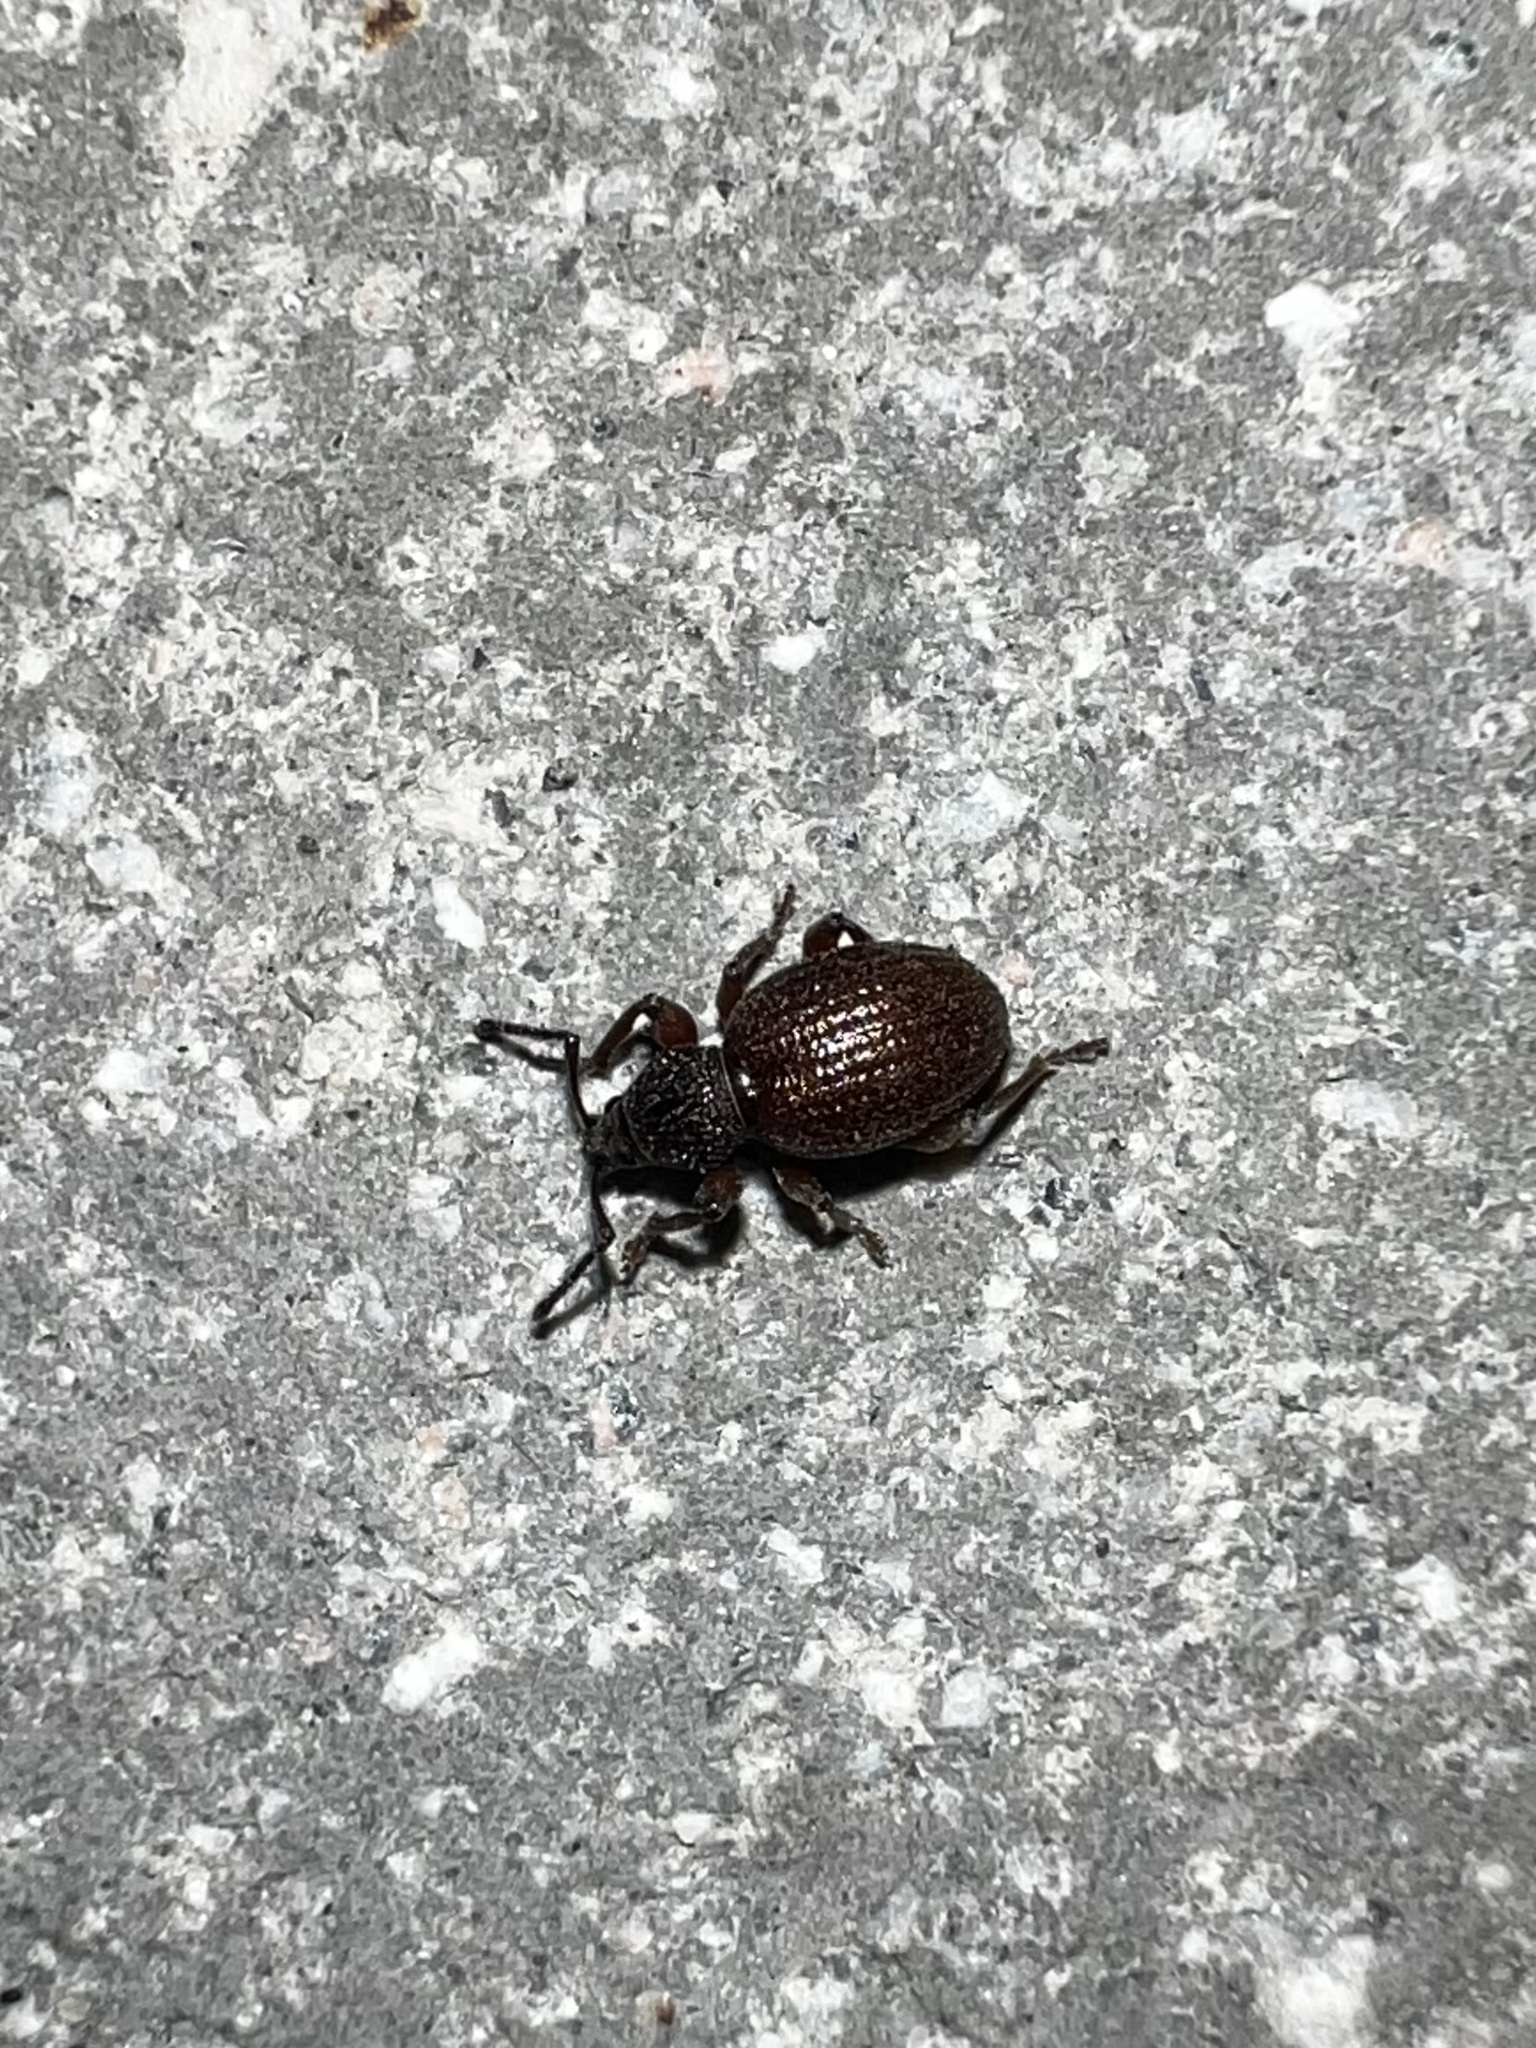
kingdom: Animalia
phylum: Arthropoda
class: Insecta
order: Coleoptera
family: Curculionidae
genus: Otiorhynchus
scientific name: Otiorhynchus ovatus
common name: Strawberry root weevil
